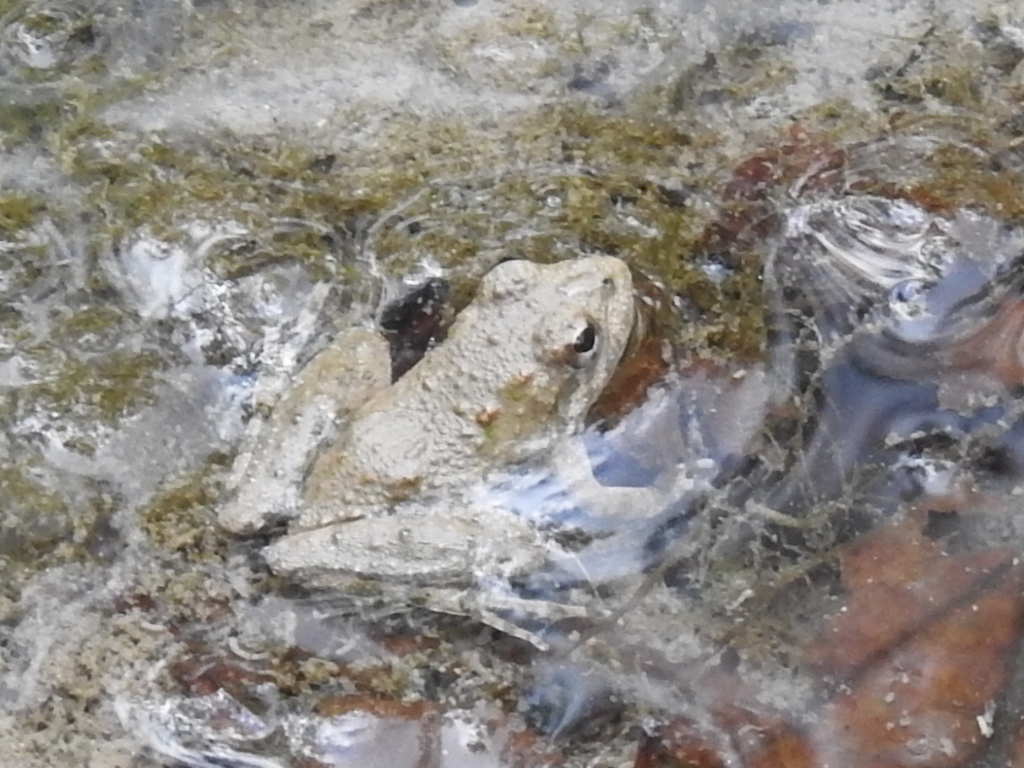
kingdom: Animalia
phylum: Chordata
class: Amphibia
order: Anura
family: Hylidae
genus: Acris
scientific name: Acris blanchardi
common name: Blanchard's cricket frog
